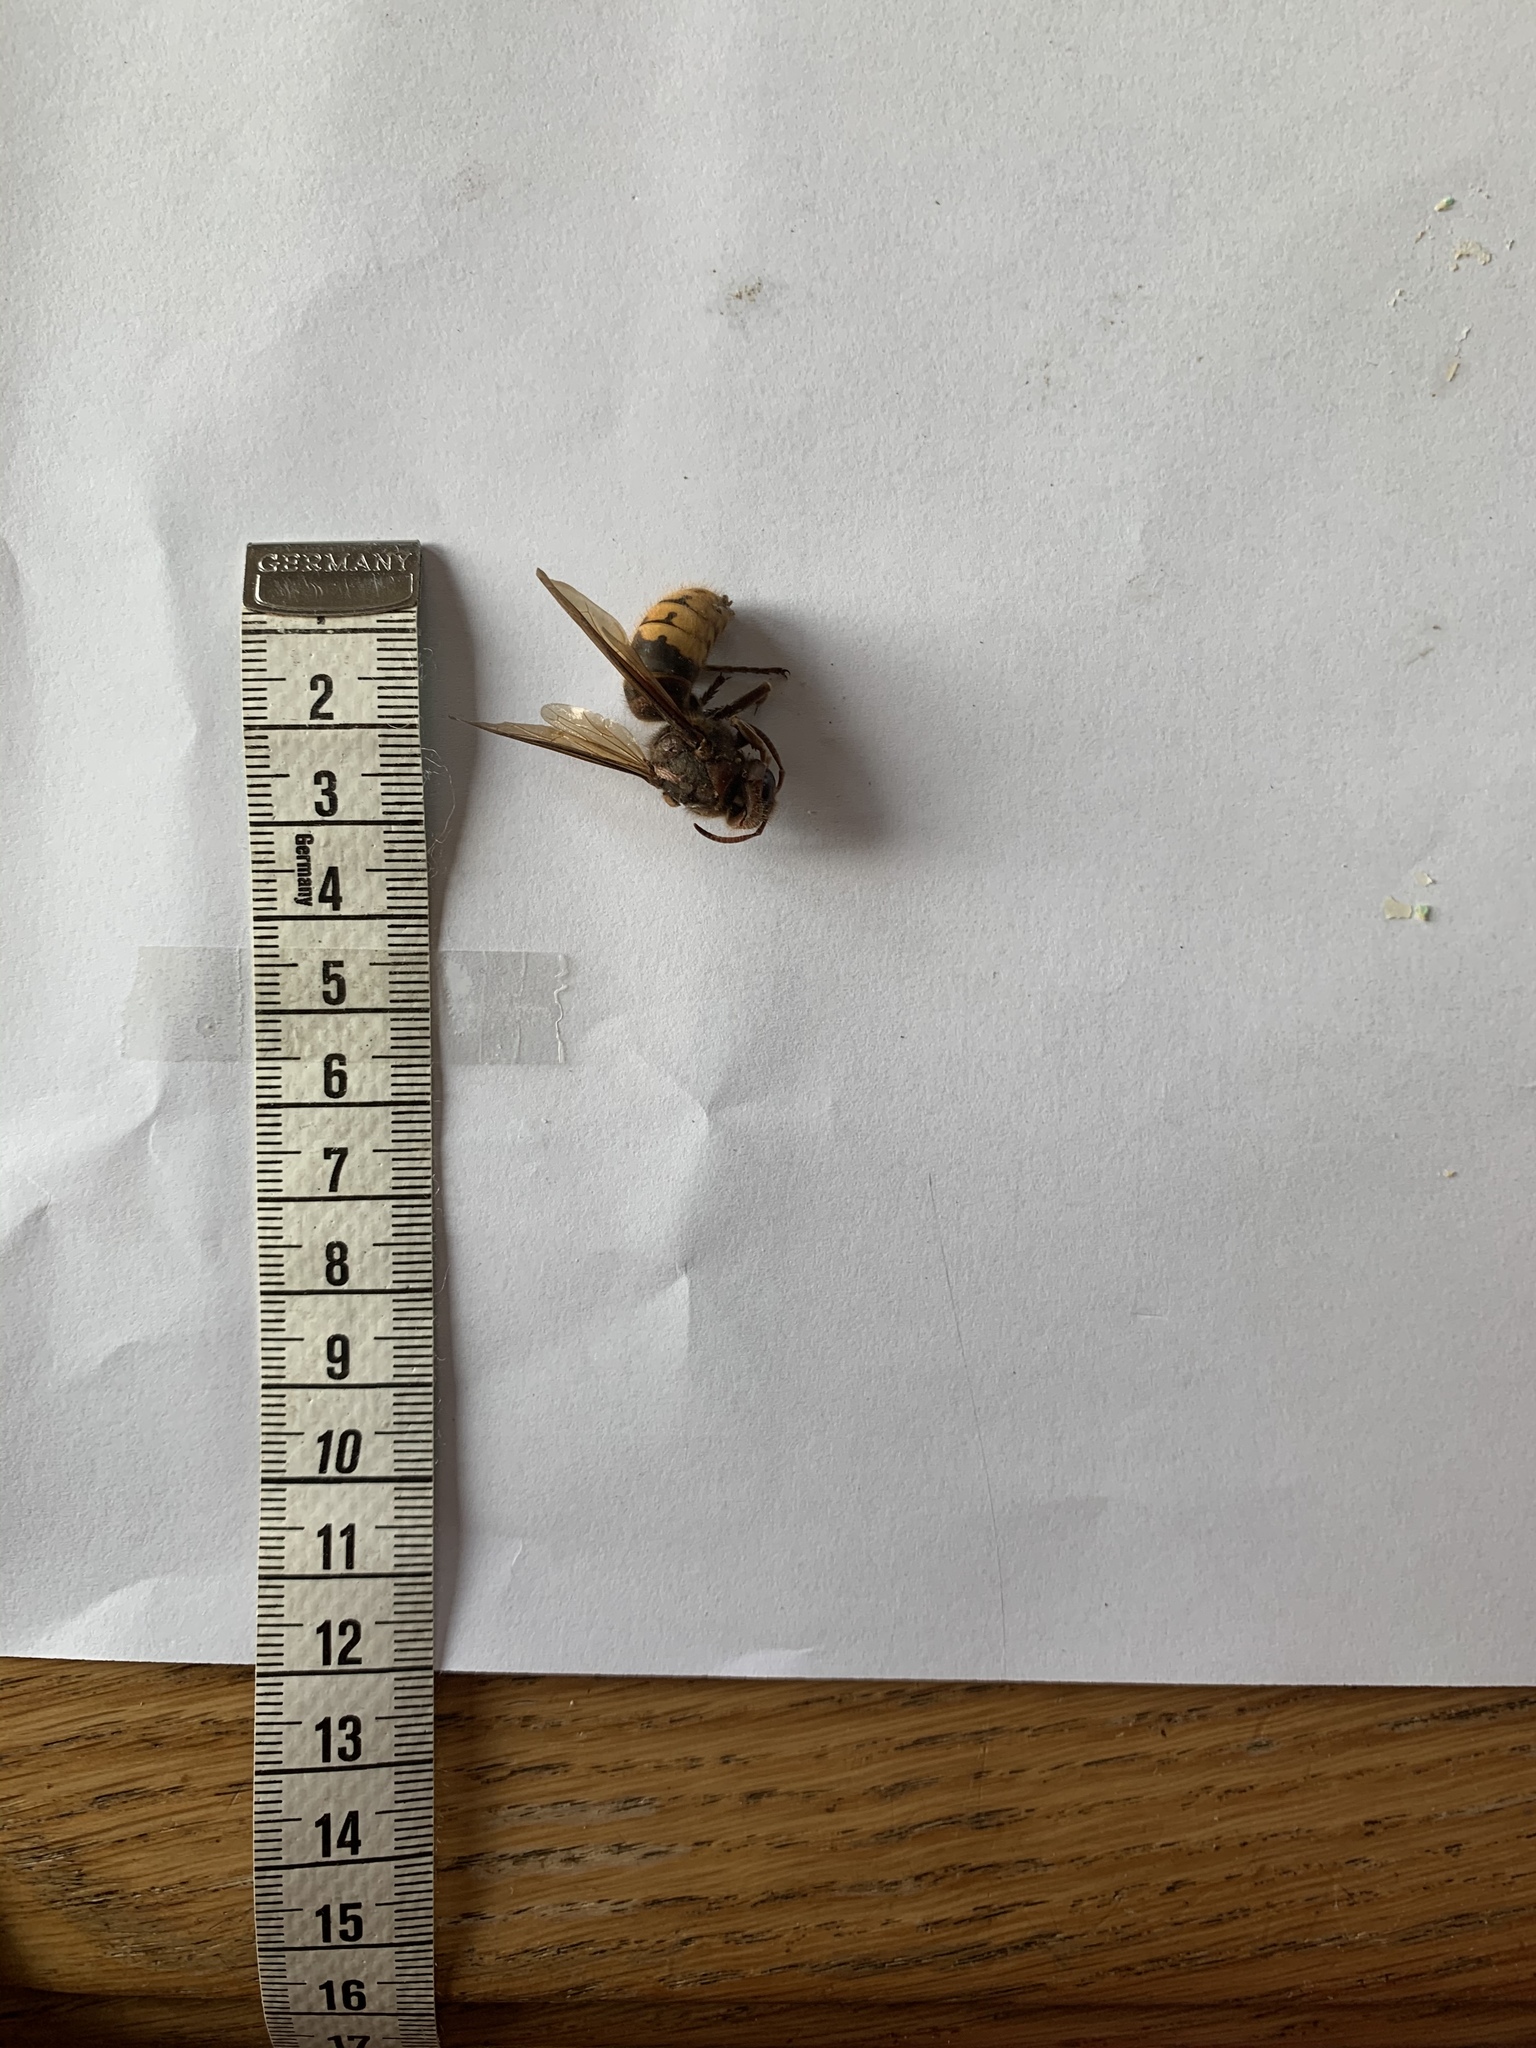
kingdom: Animalia
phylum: Arthropoda
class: Insecta
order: Hymenoptera
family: Vespidae
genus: Vespa
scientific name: Vespa crabro
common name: Hornet
